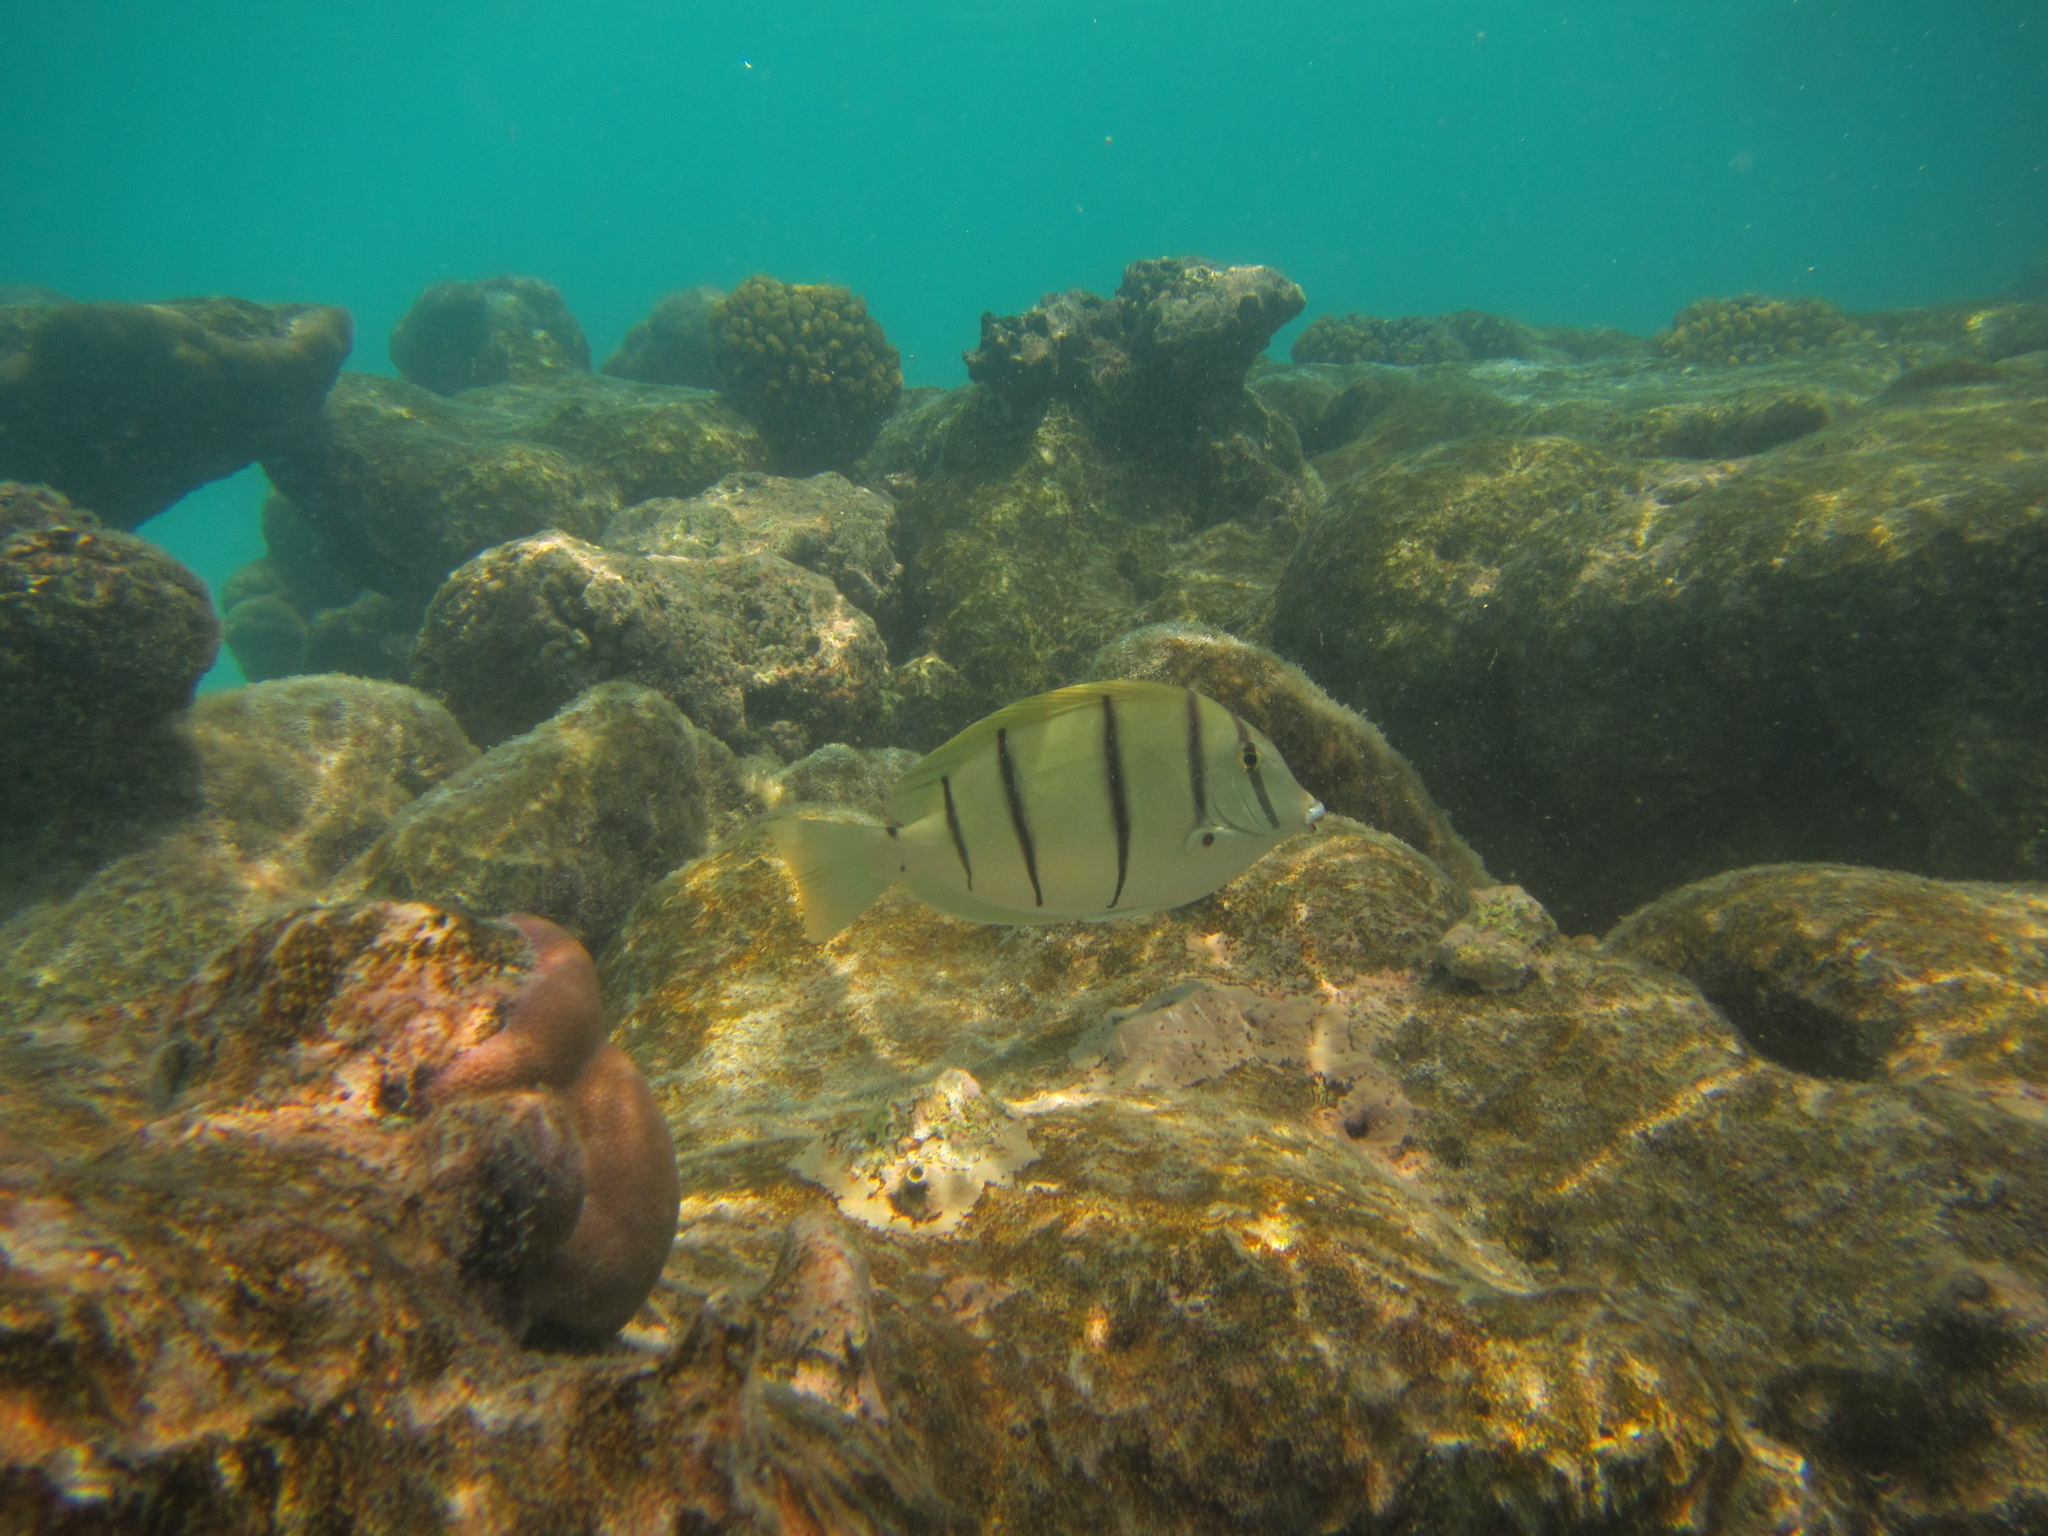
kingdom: Animalia
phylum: Chordata
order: Perciformes
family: Acanthuridae
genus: Acanthurus
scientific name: Acanthurus triostegus
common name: Convict surgeonfish
